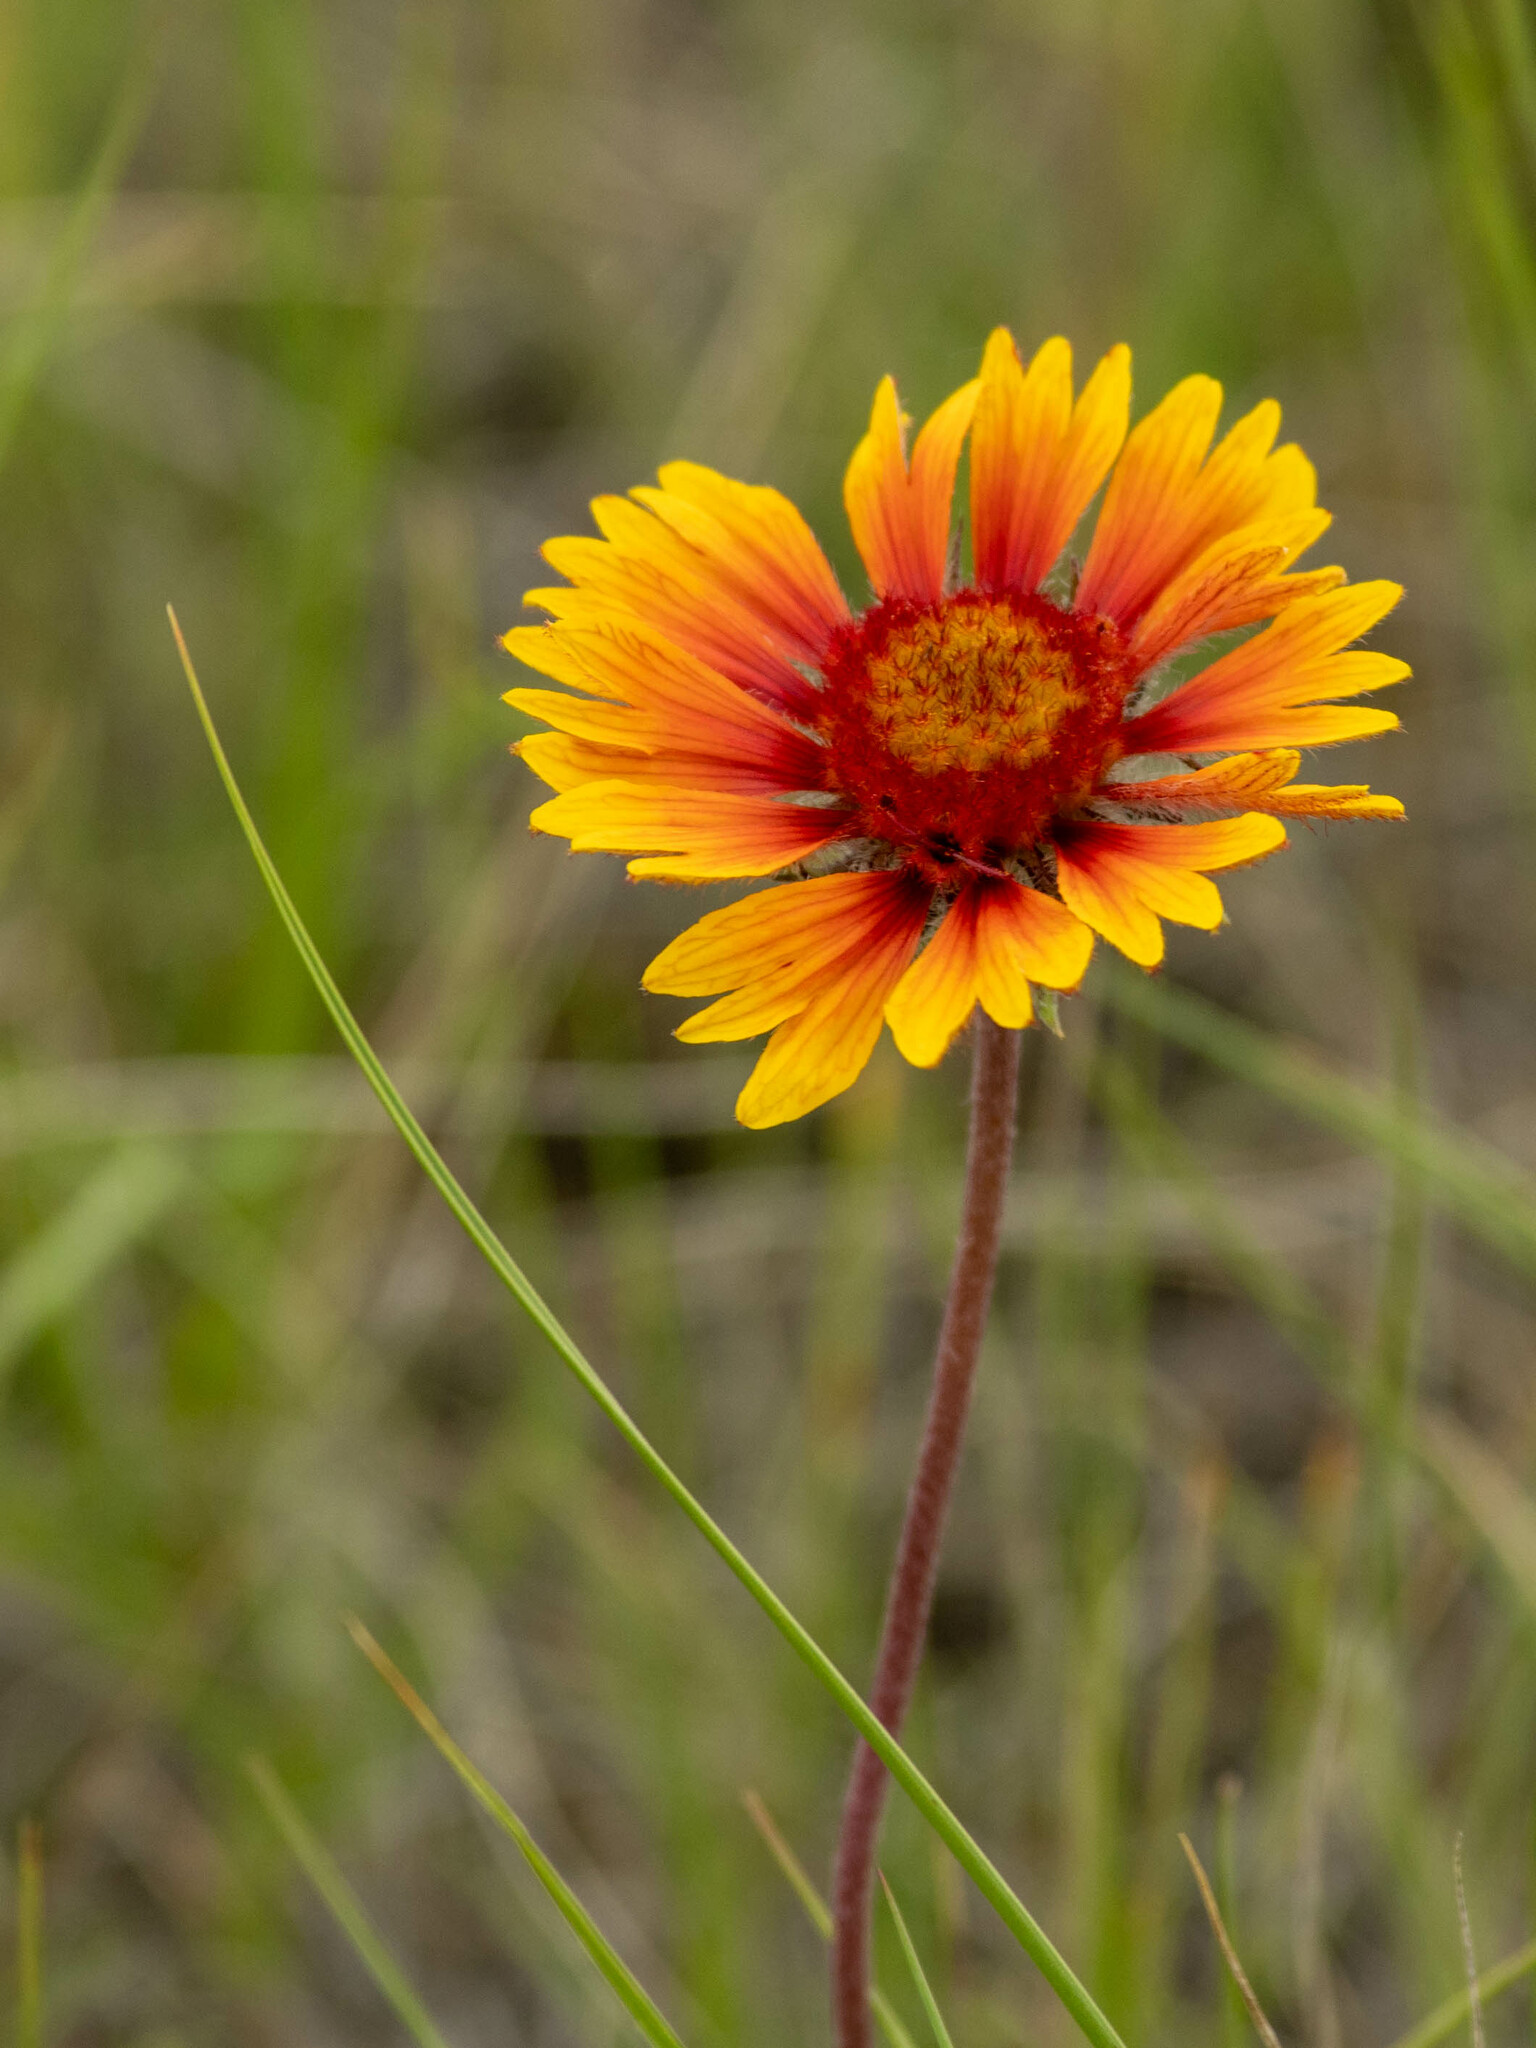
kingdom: Plantae
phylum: Tracheophyta
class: Magnoliopsida
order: Asterales
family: Asteraceae
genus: Gaillardia
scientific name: Gaillardia aristata
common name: Blanket-flower
